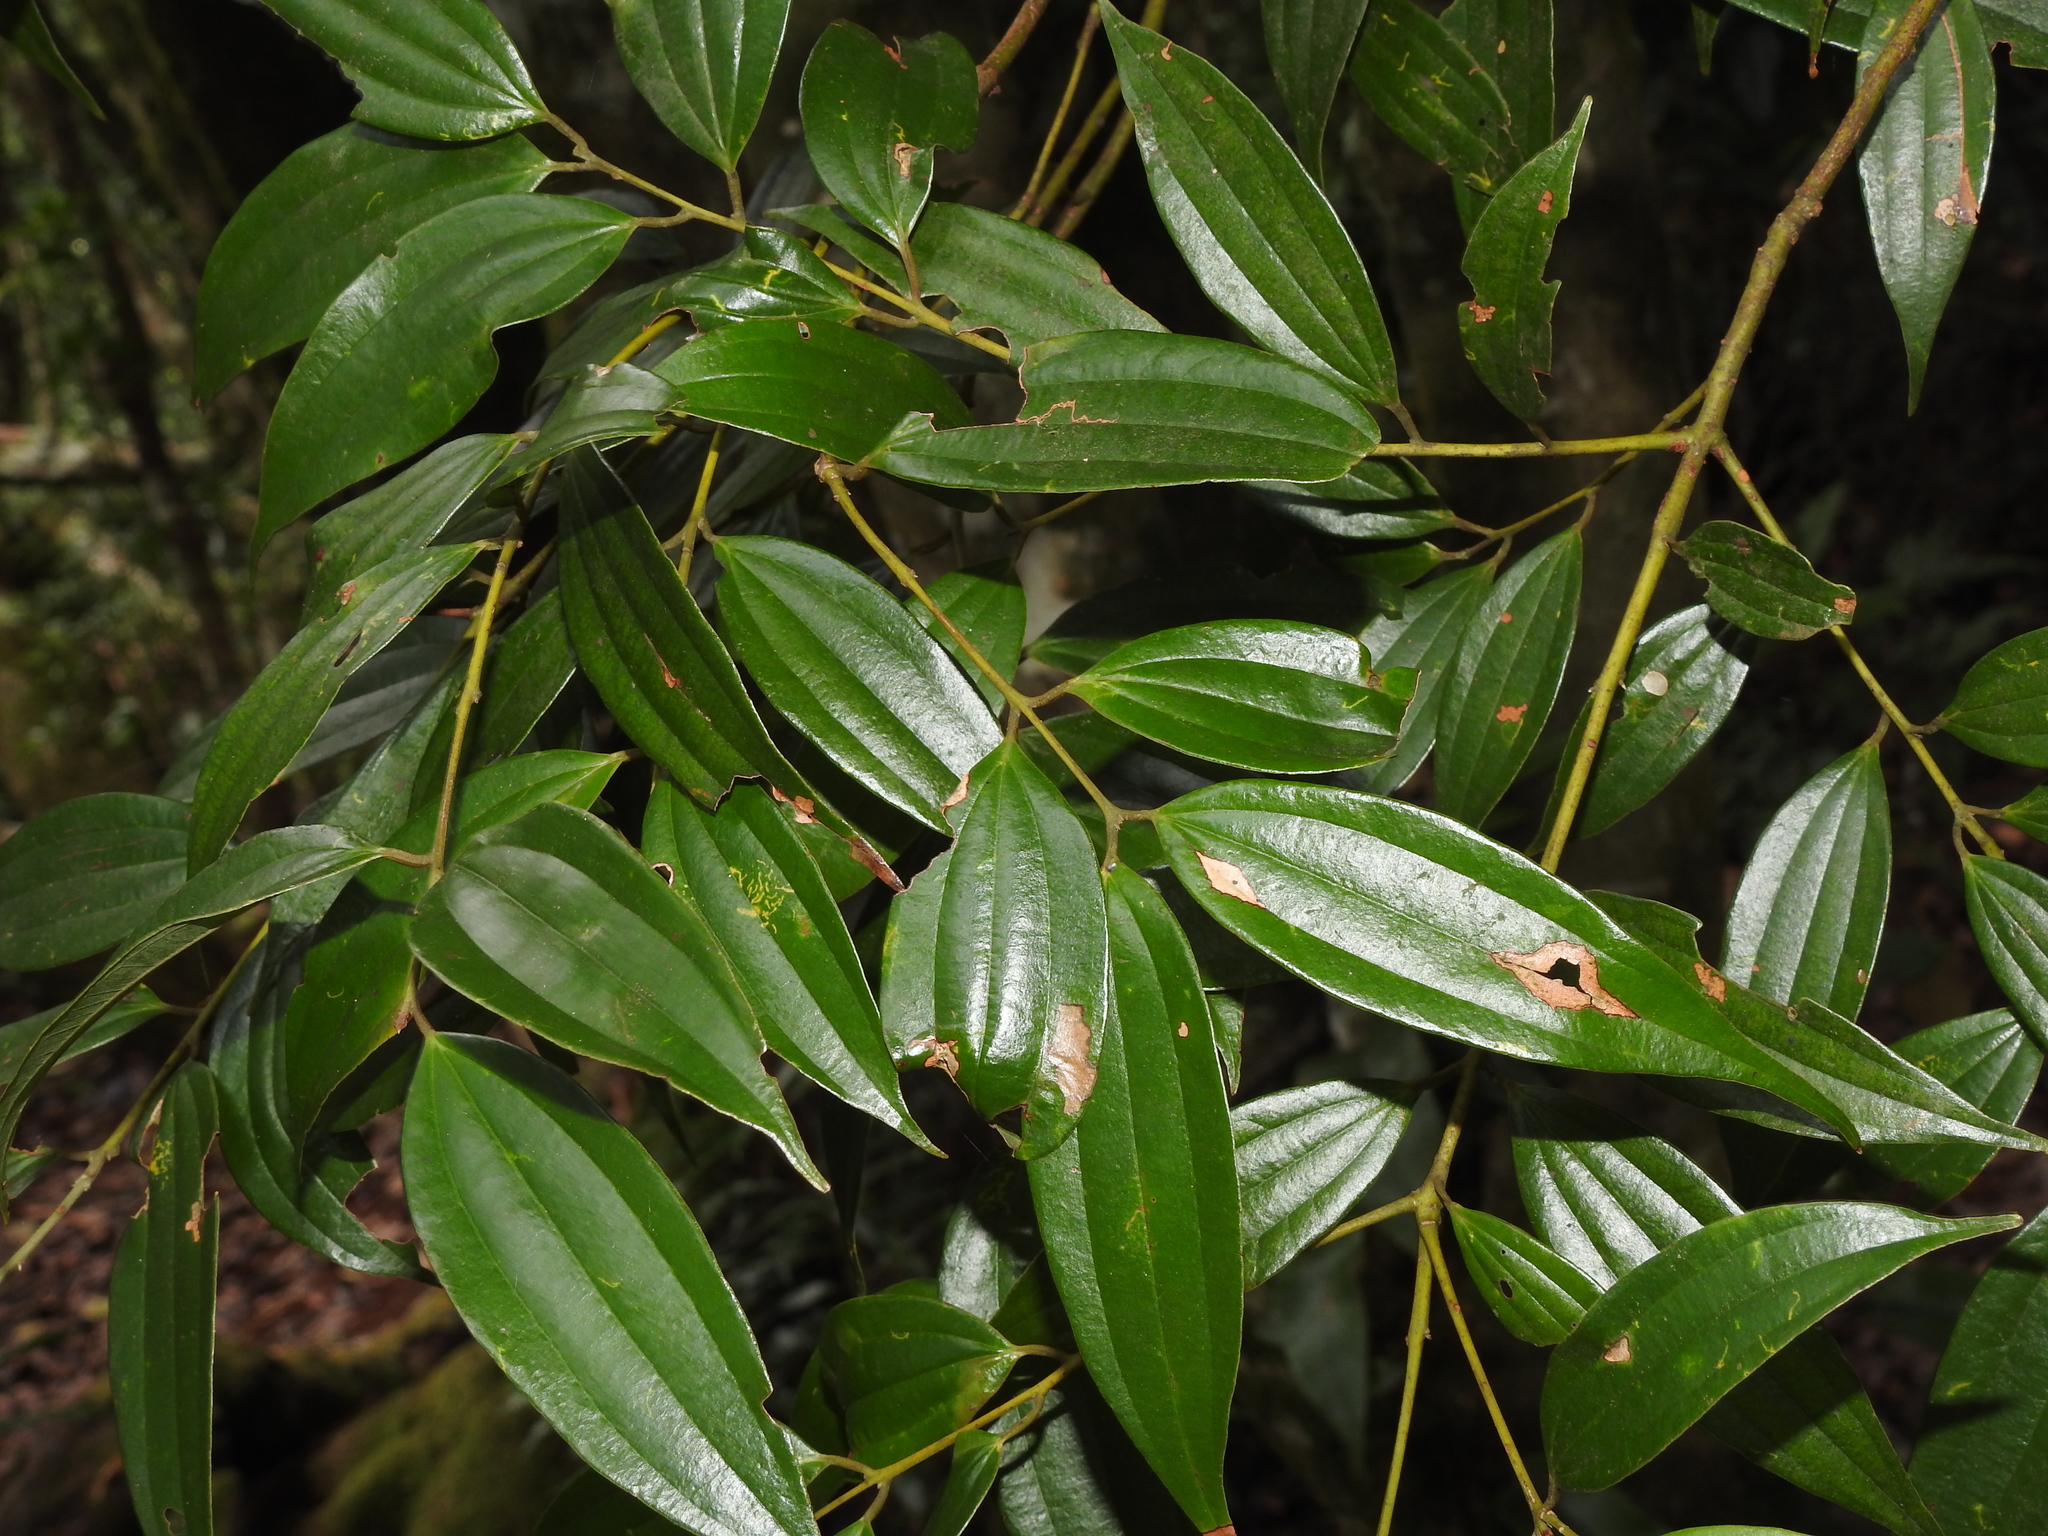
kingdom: Plantae
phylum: Tracheophyta
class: Magnoliopsida
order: Laurales
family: Lauraceae
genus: Cinnamomum
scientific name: Cinnamomum subavenium
